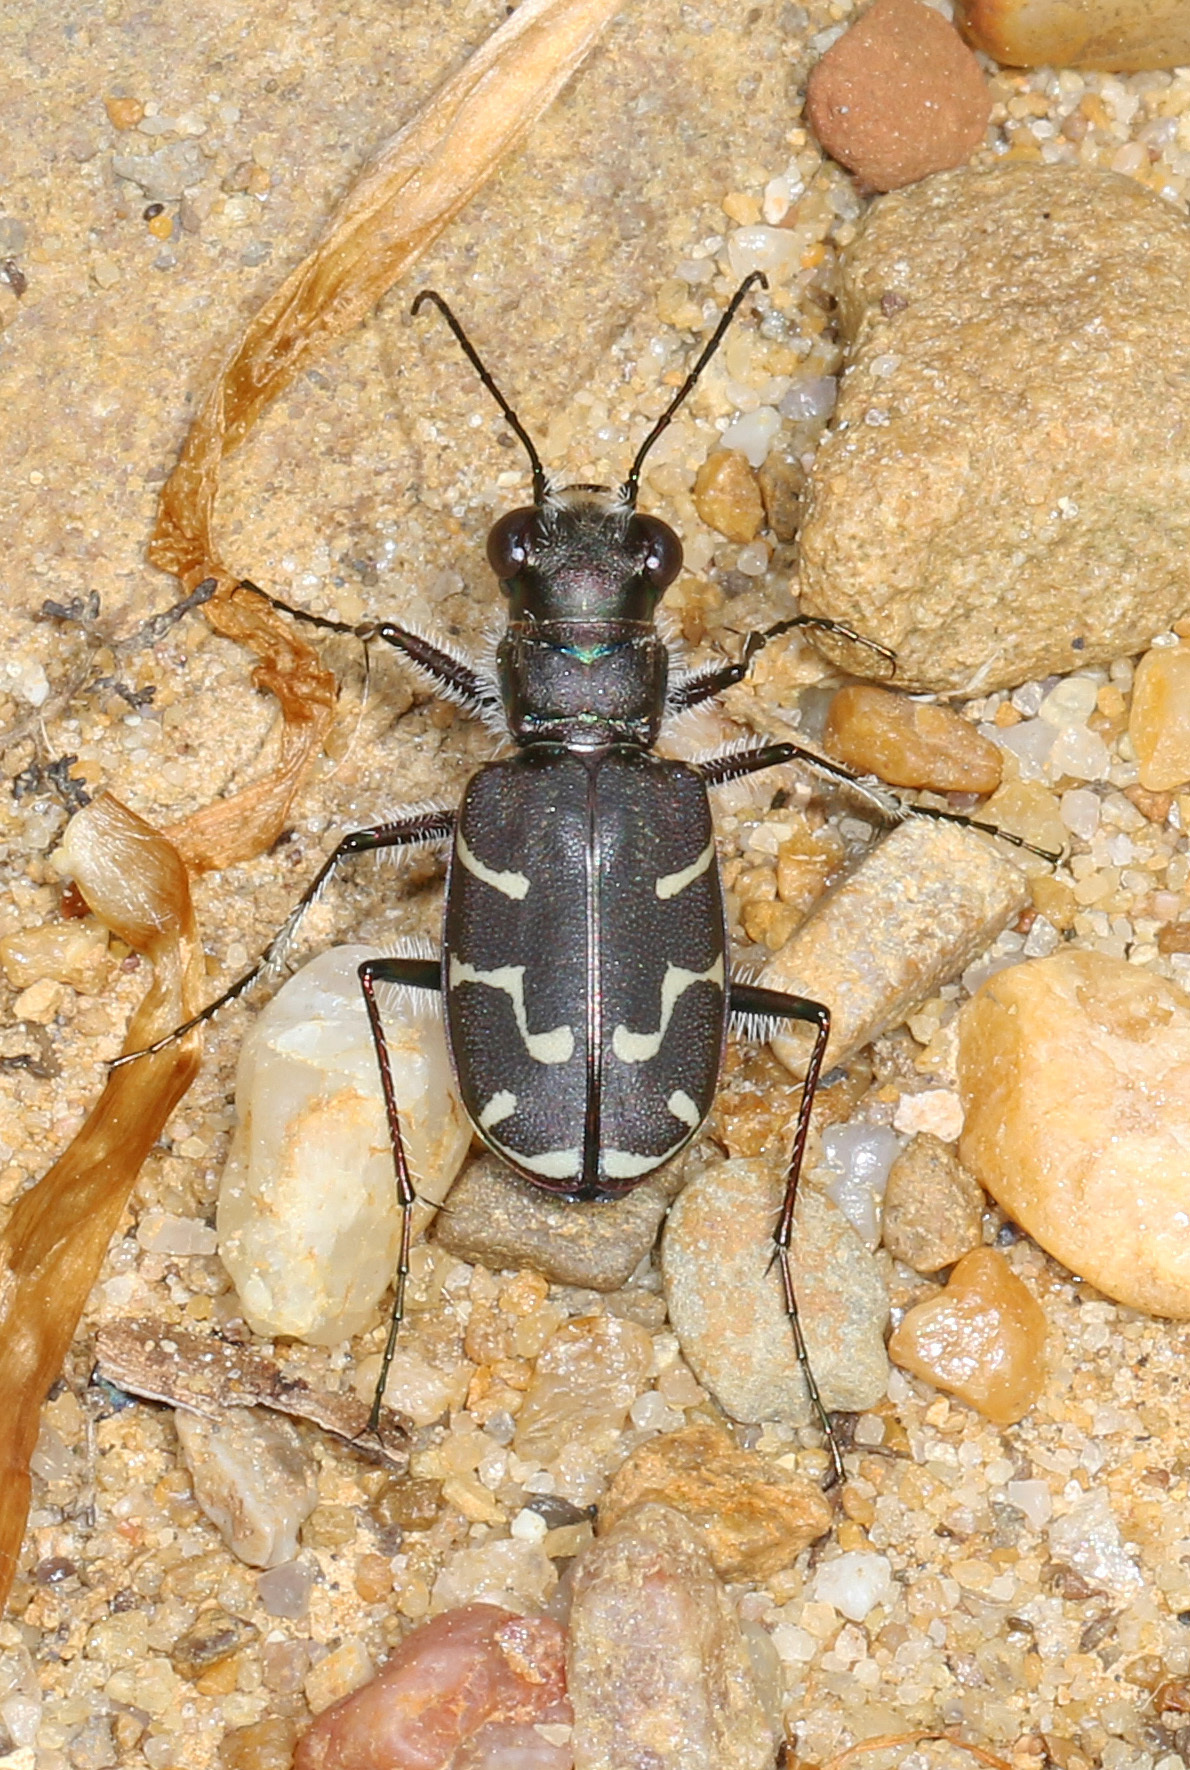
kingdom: Animalia
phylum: Arthropoda
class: Insecta
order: Coleoptera
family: Carabidae
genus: Cicindela
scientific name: Cicindela tranquebarica
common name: Oblique-lined tiger beetle
